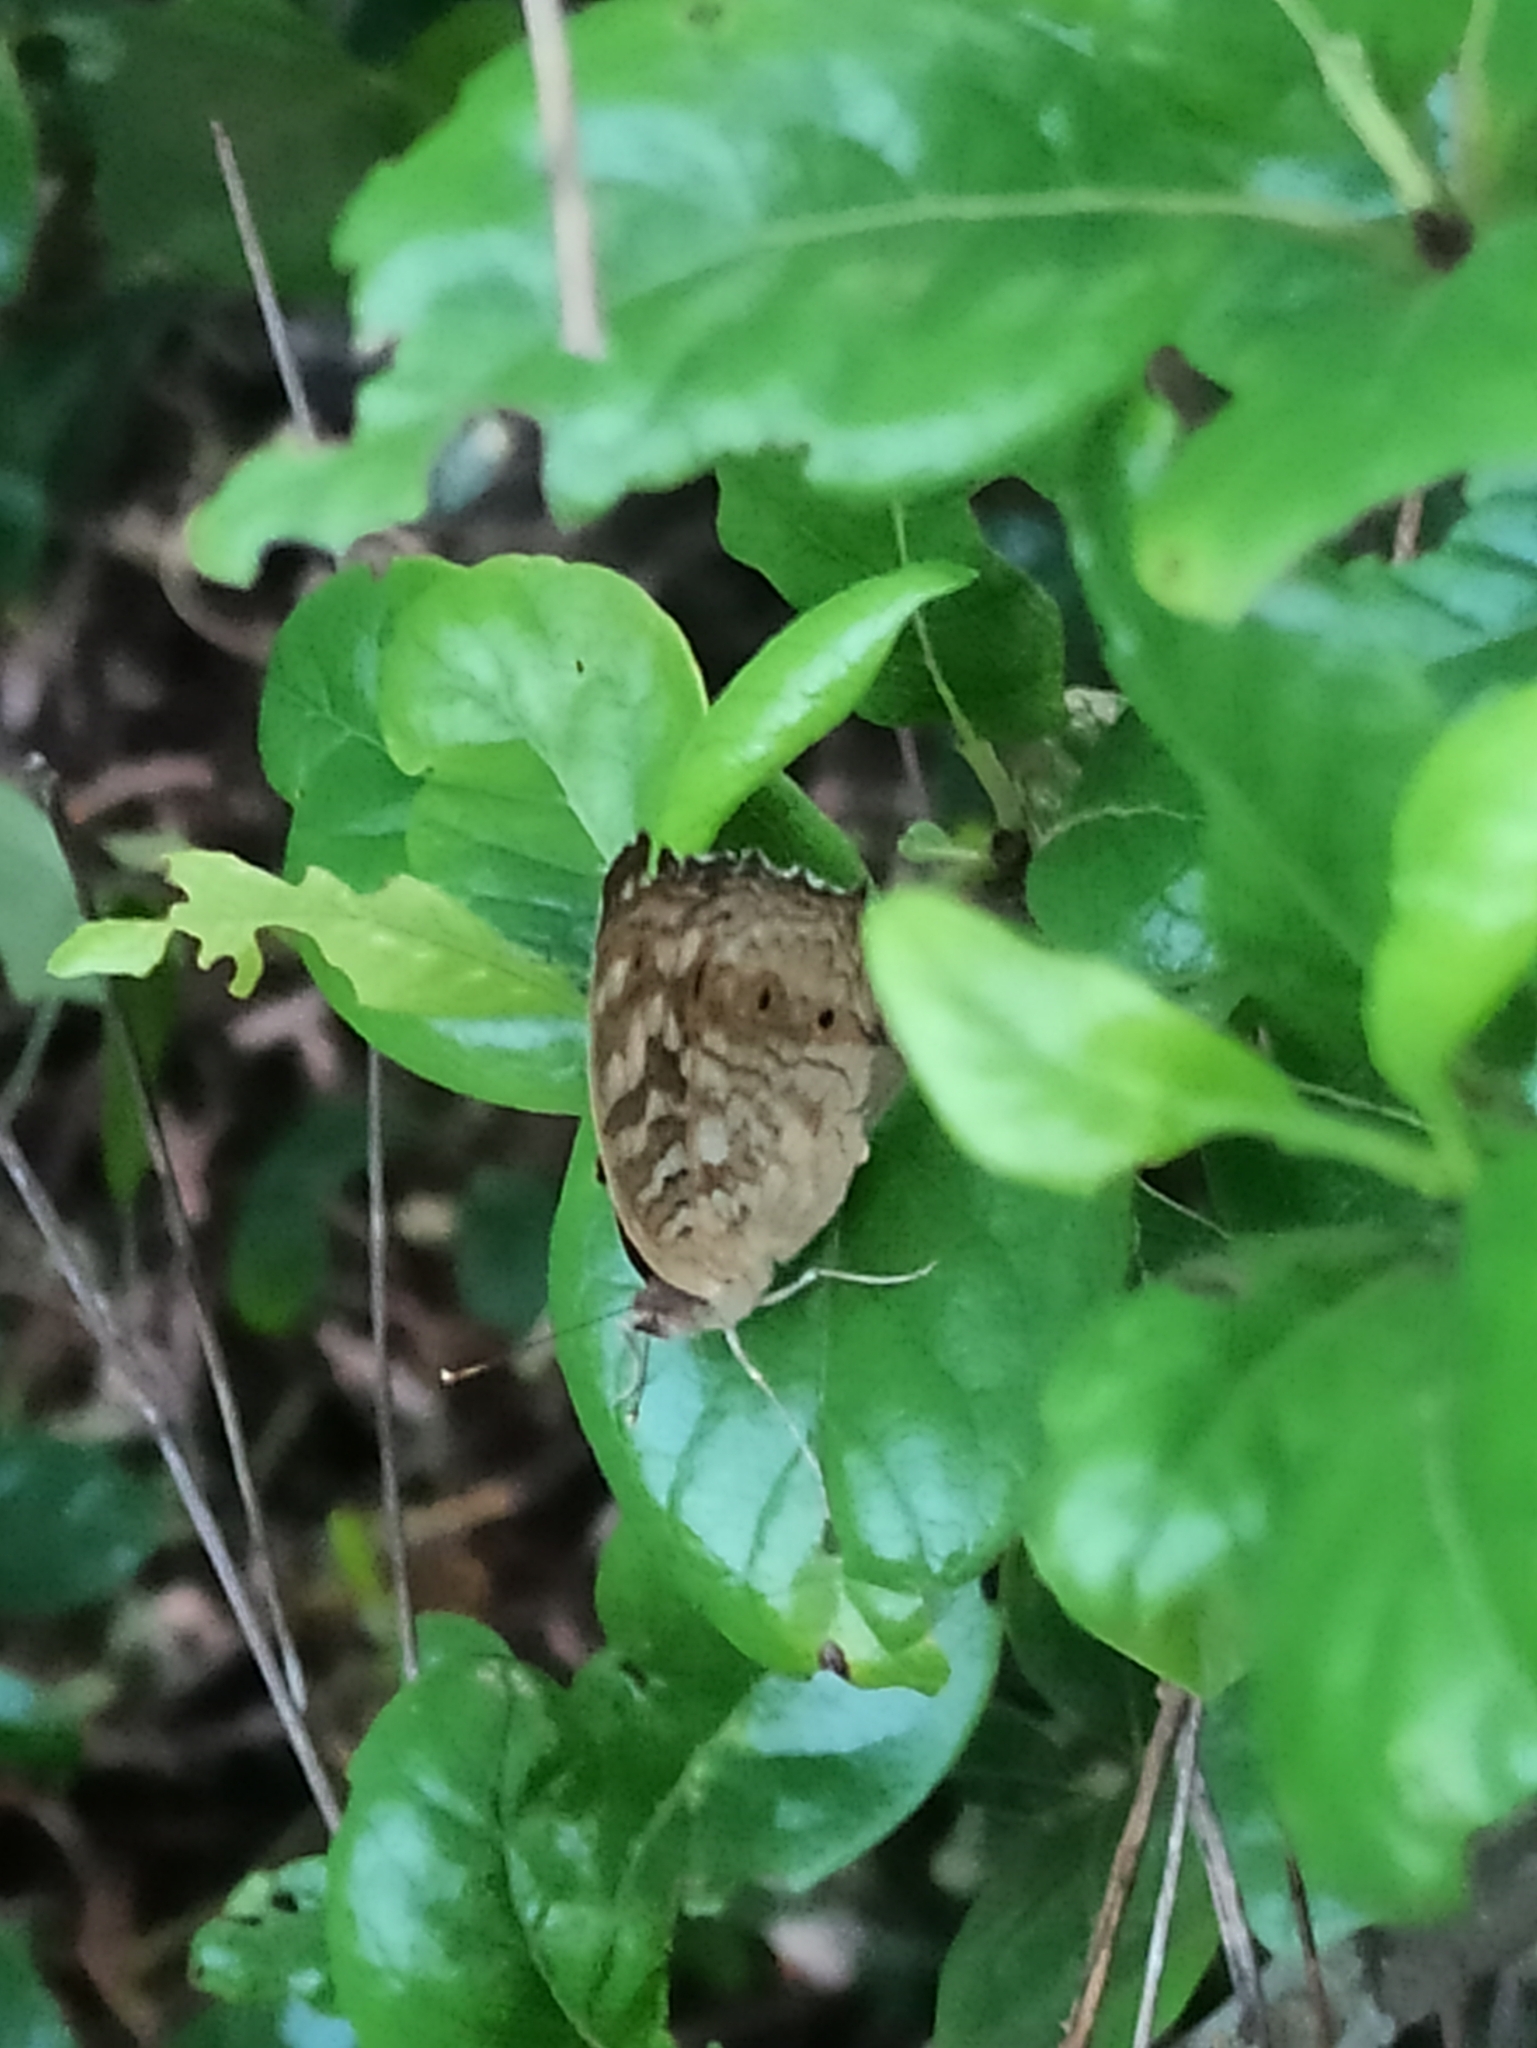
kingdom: Animalia
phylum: Arthropoda
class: Insecta
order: Lepidoptera
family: Nymphalidae
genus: Junonia
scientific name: Junonia lemonias
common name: Lemon pansy
